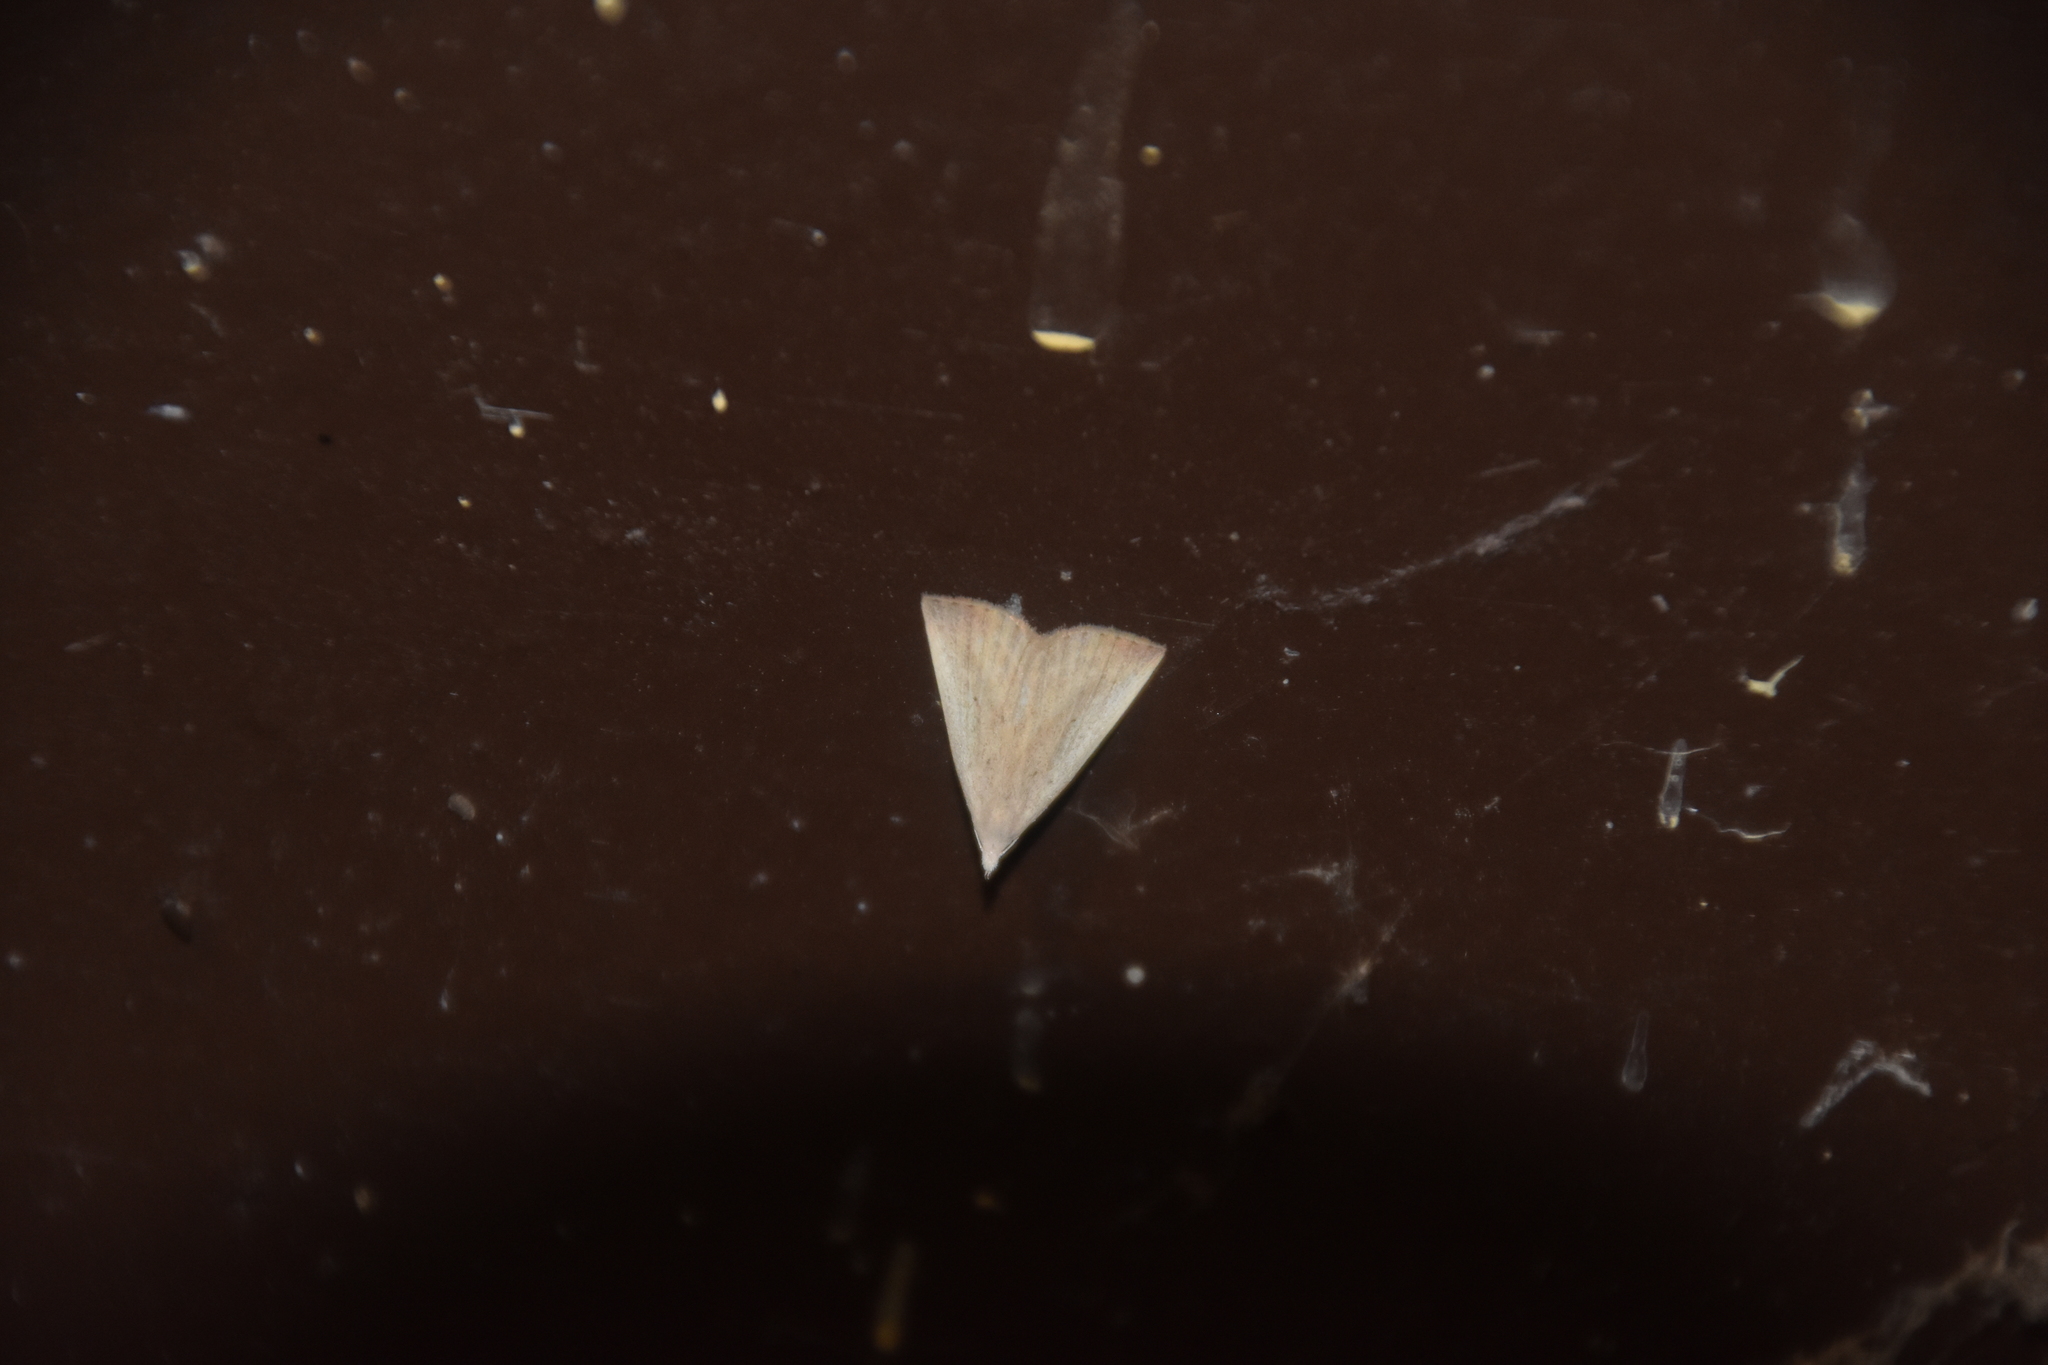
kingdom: Animalia
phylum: Arthropoda
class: Insecta
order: Lepidoptera
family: Crambidae
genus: Udea
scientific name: Udea rubigalis
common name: Celery leaftier moth
